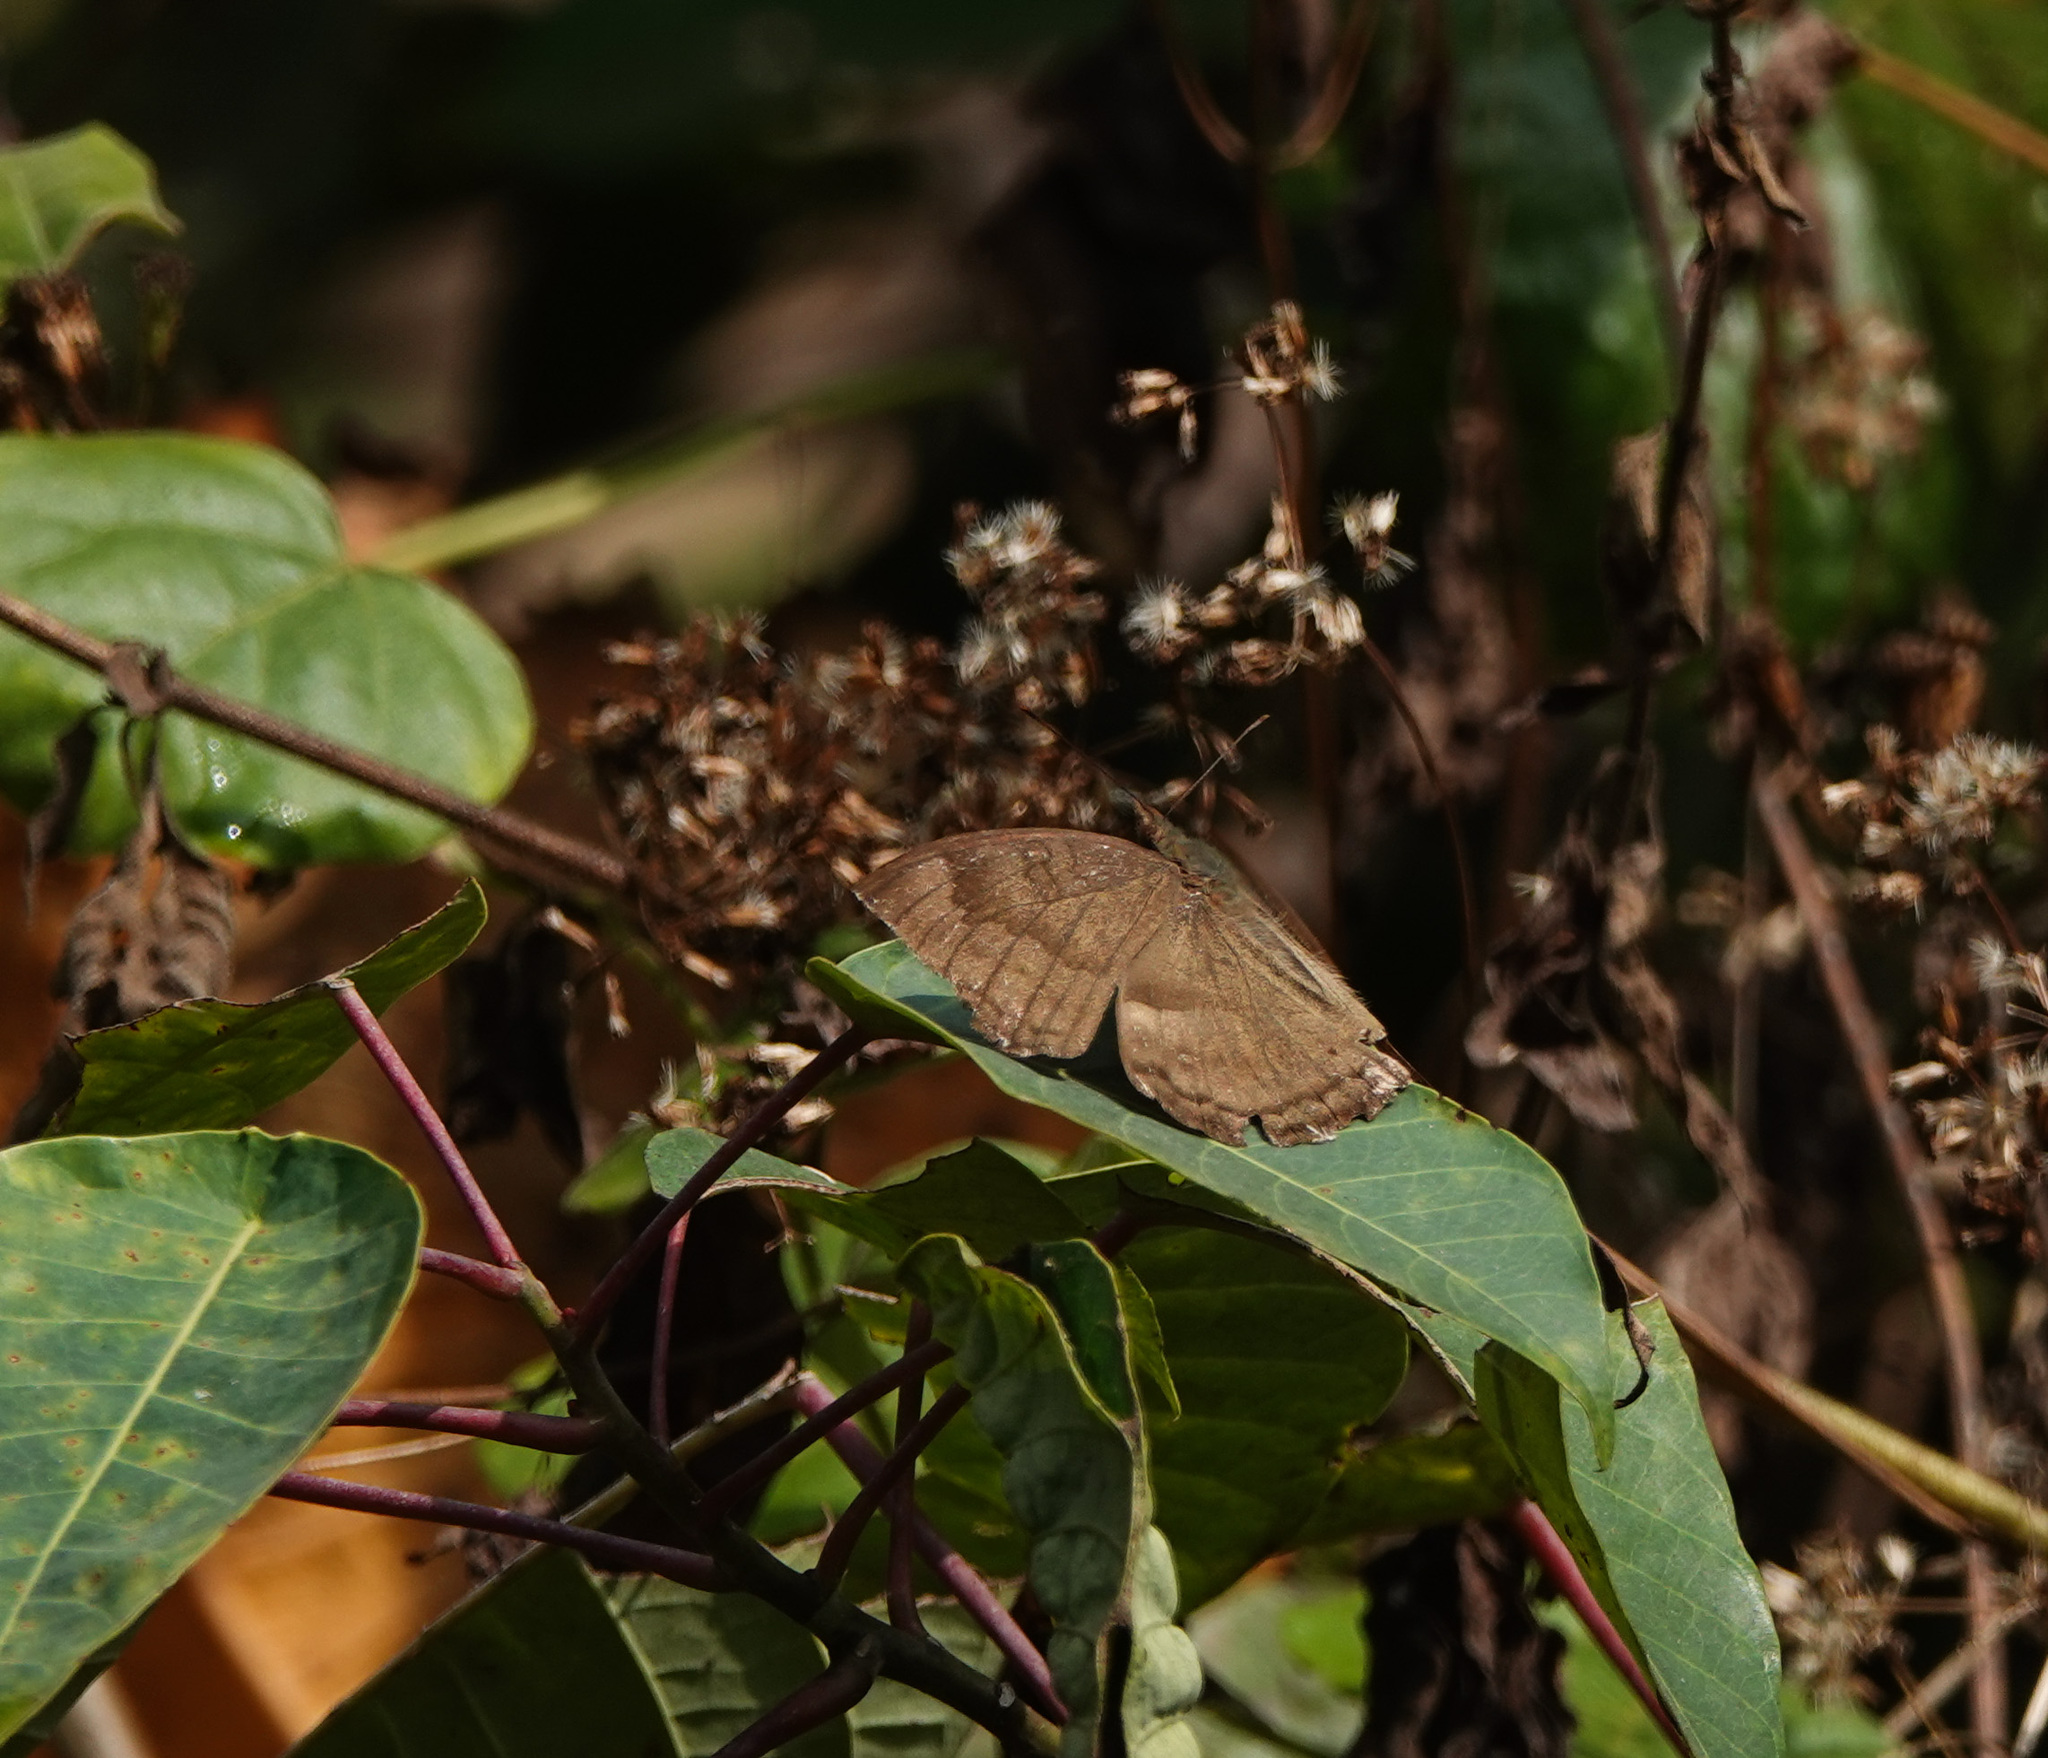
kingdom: Animalia
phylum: Arthropoda
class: Insecta
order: Lepidoptera
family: Nymphalidae
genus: Junonia
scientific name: Junonia iphita
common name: Chocolate pansy
